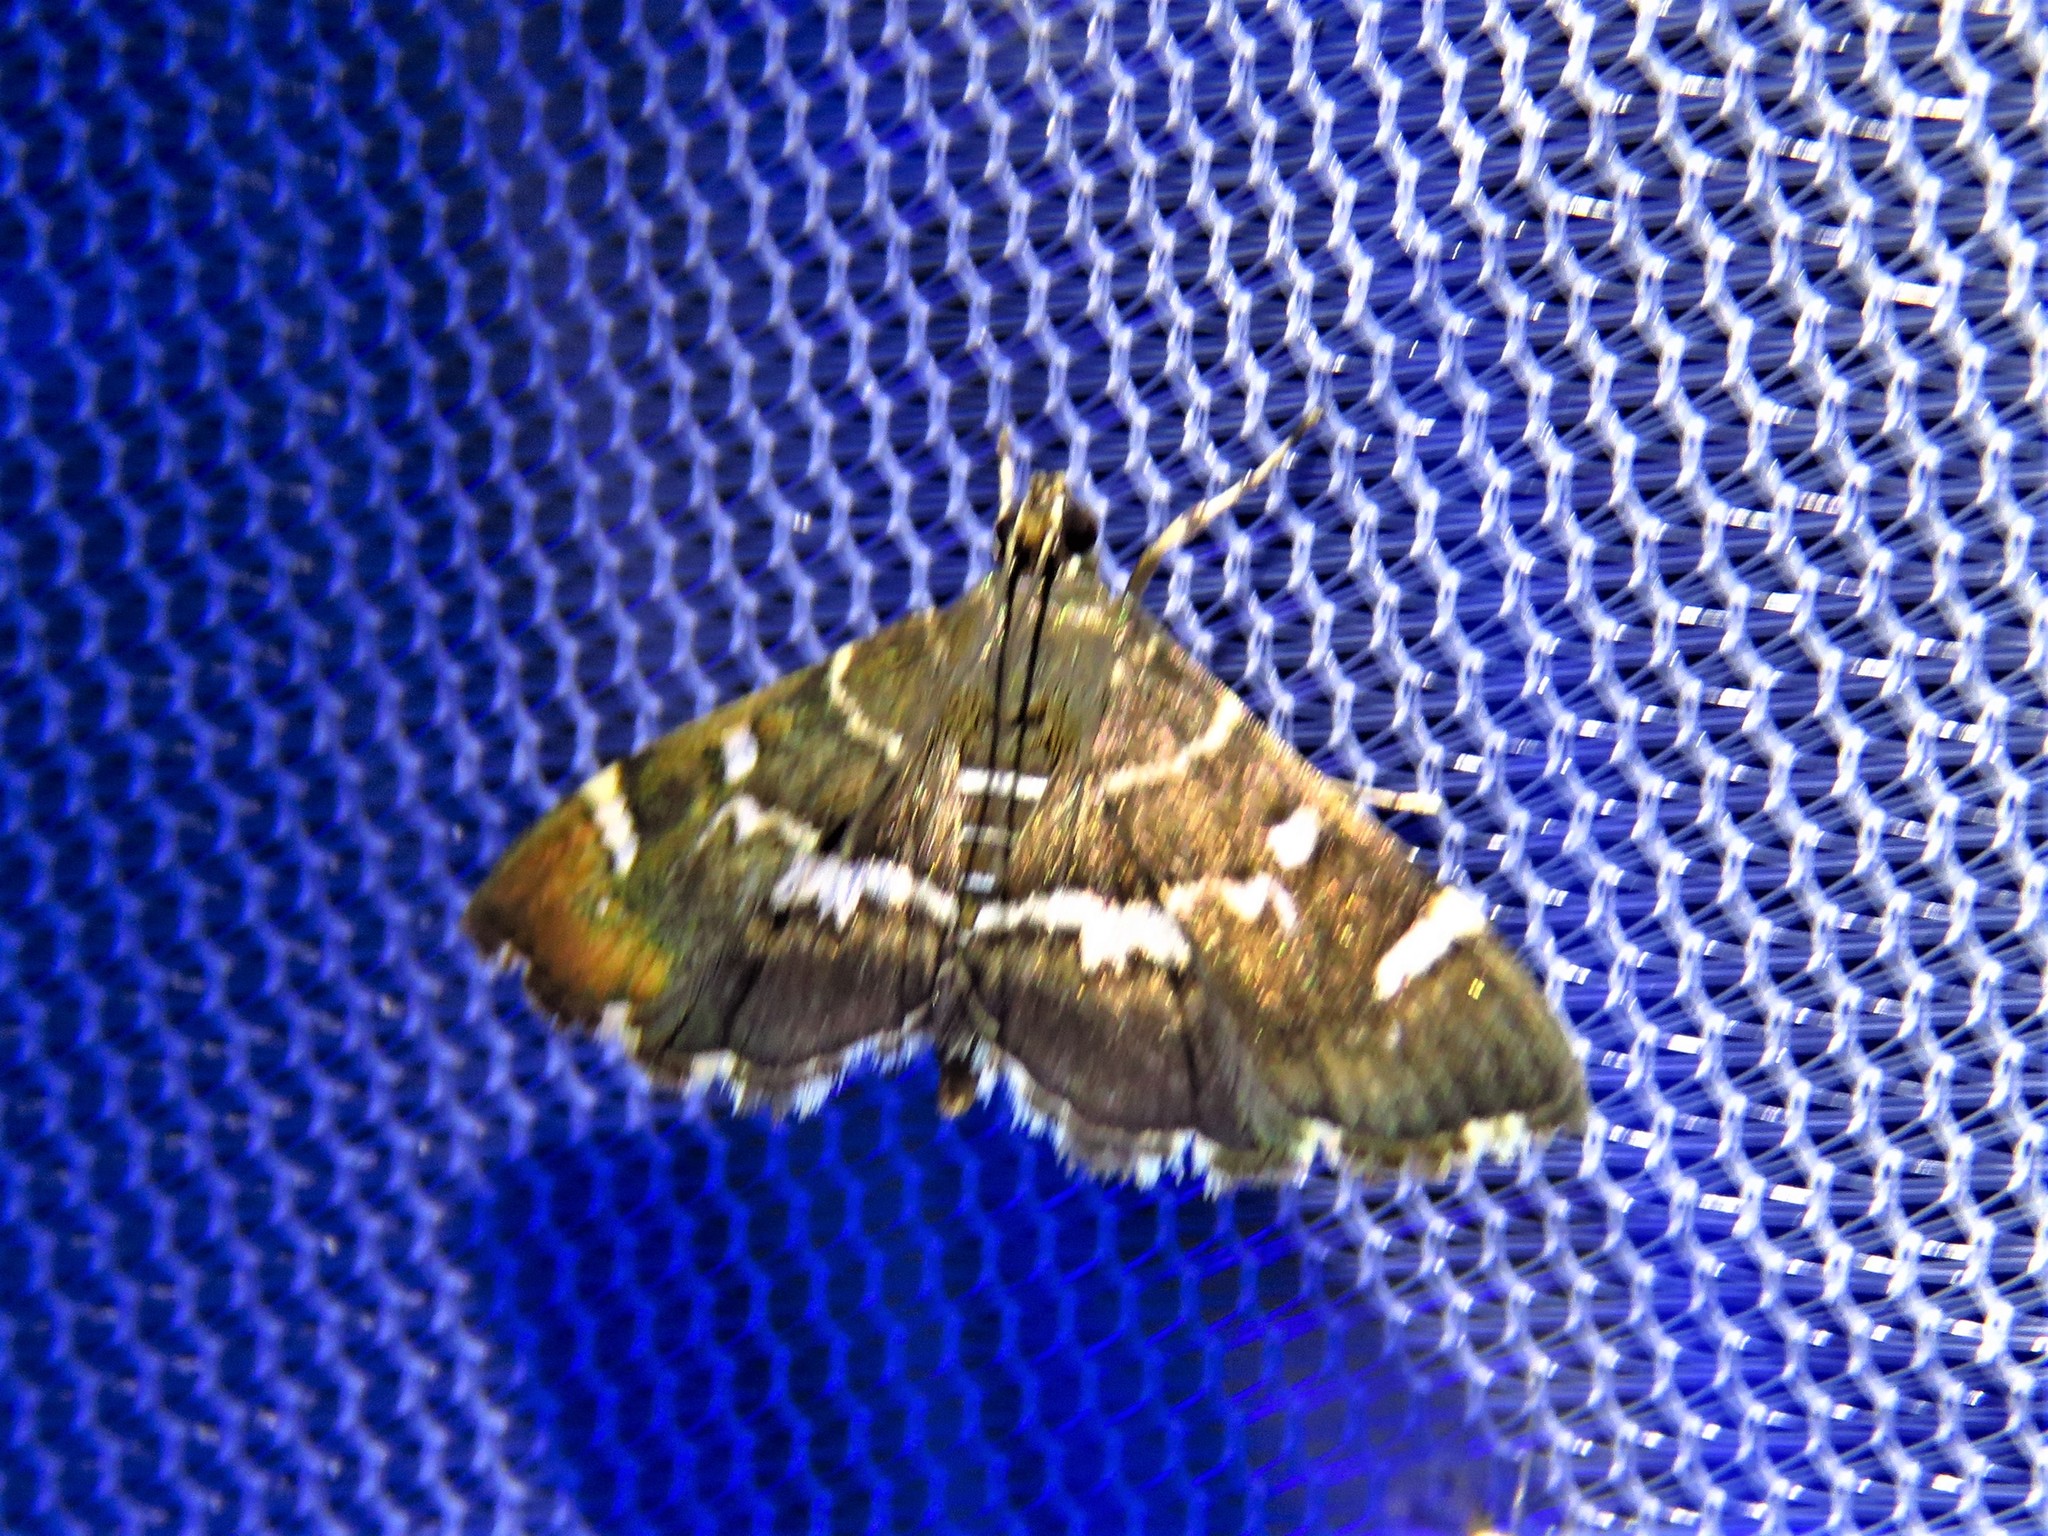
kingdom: Animalia
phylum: Arthropoda
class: Insecta
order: Lepidoptera
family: Crambidae
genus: Hymenia
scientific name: Hymenia perspectalis
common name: Spotted beet webworm
